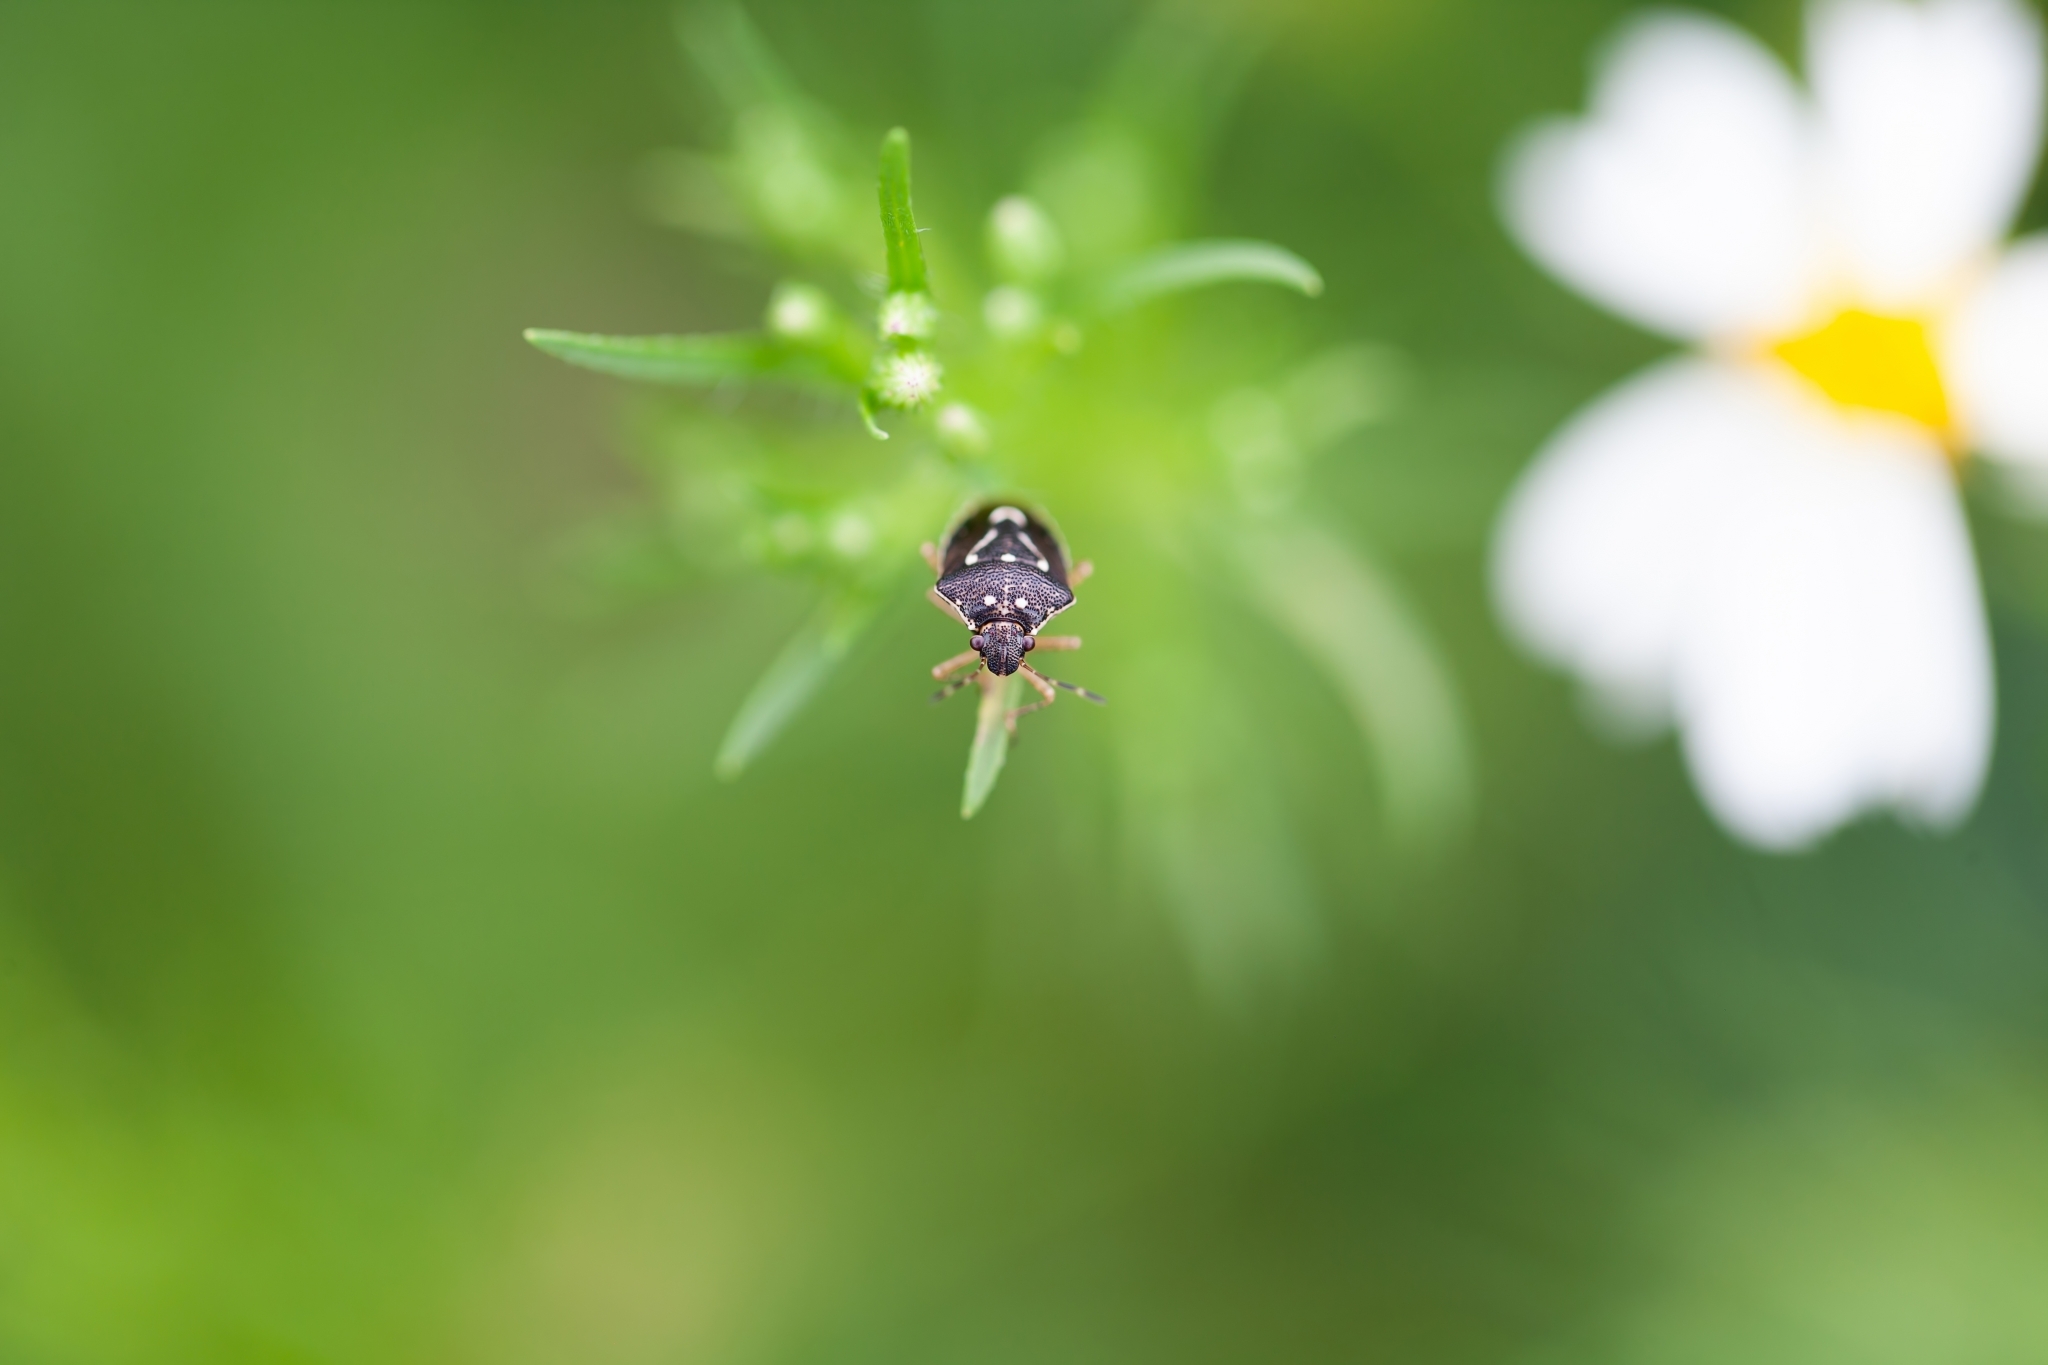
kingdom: Animalia
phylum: Arthropoda
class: Insecta
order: Hemiptera
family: Pentatomidae
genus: Mormidea
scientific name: Mormidea pama
